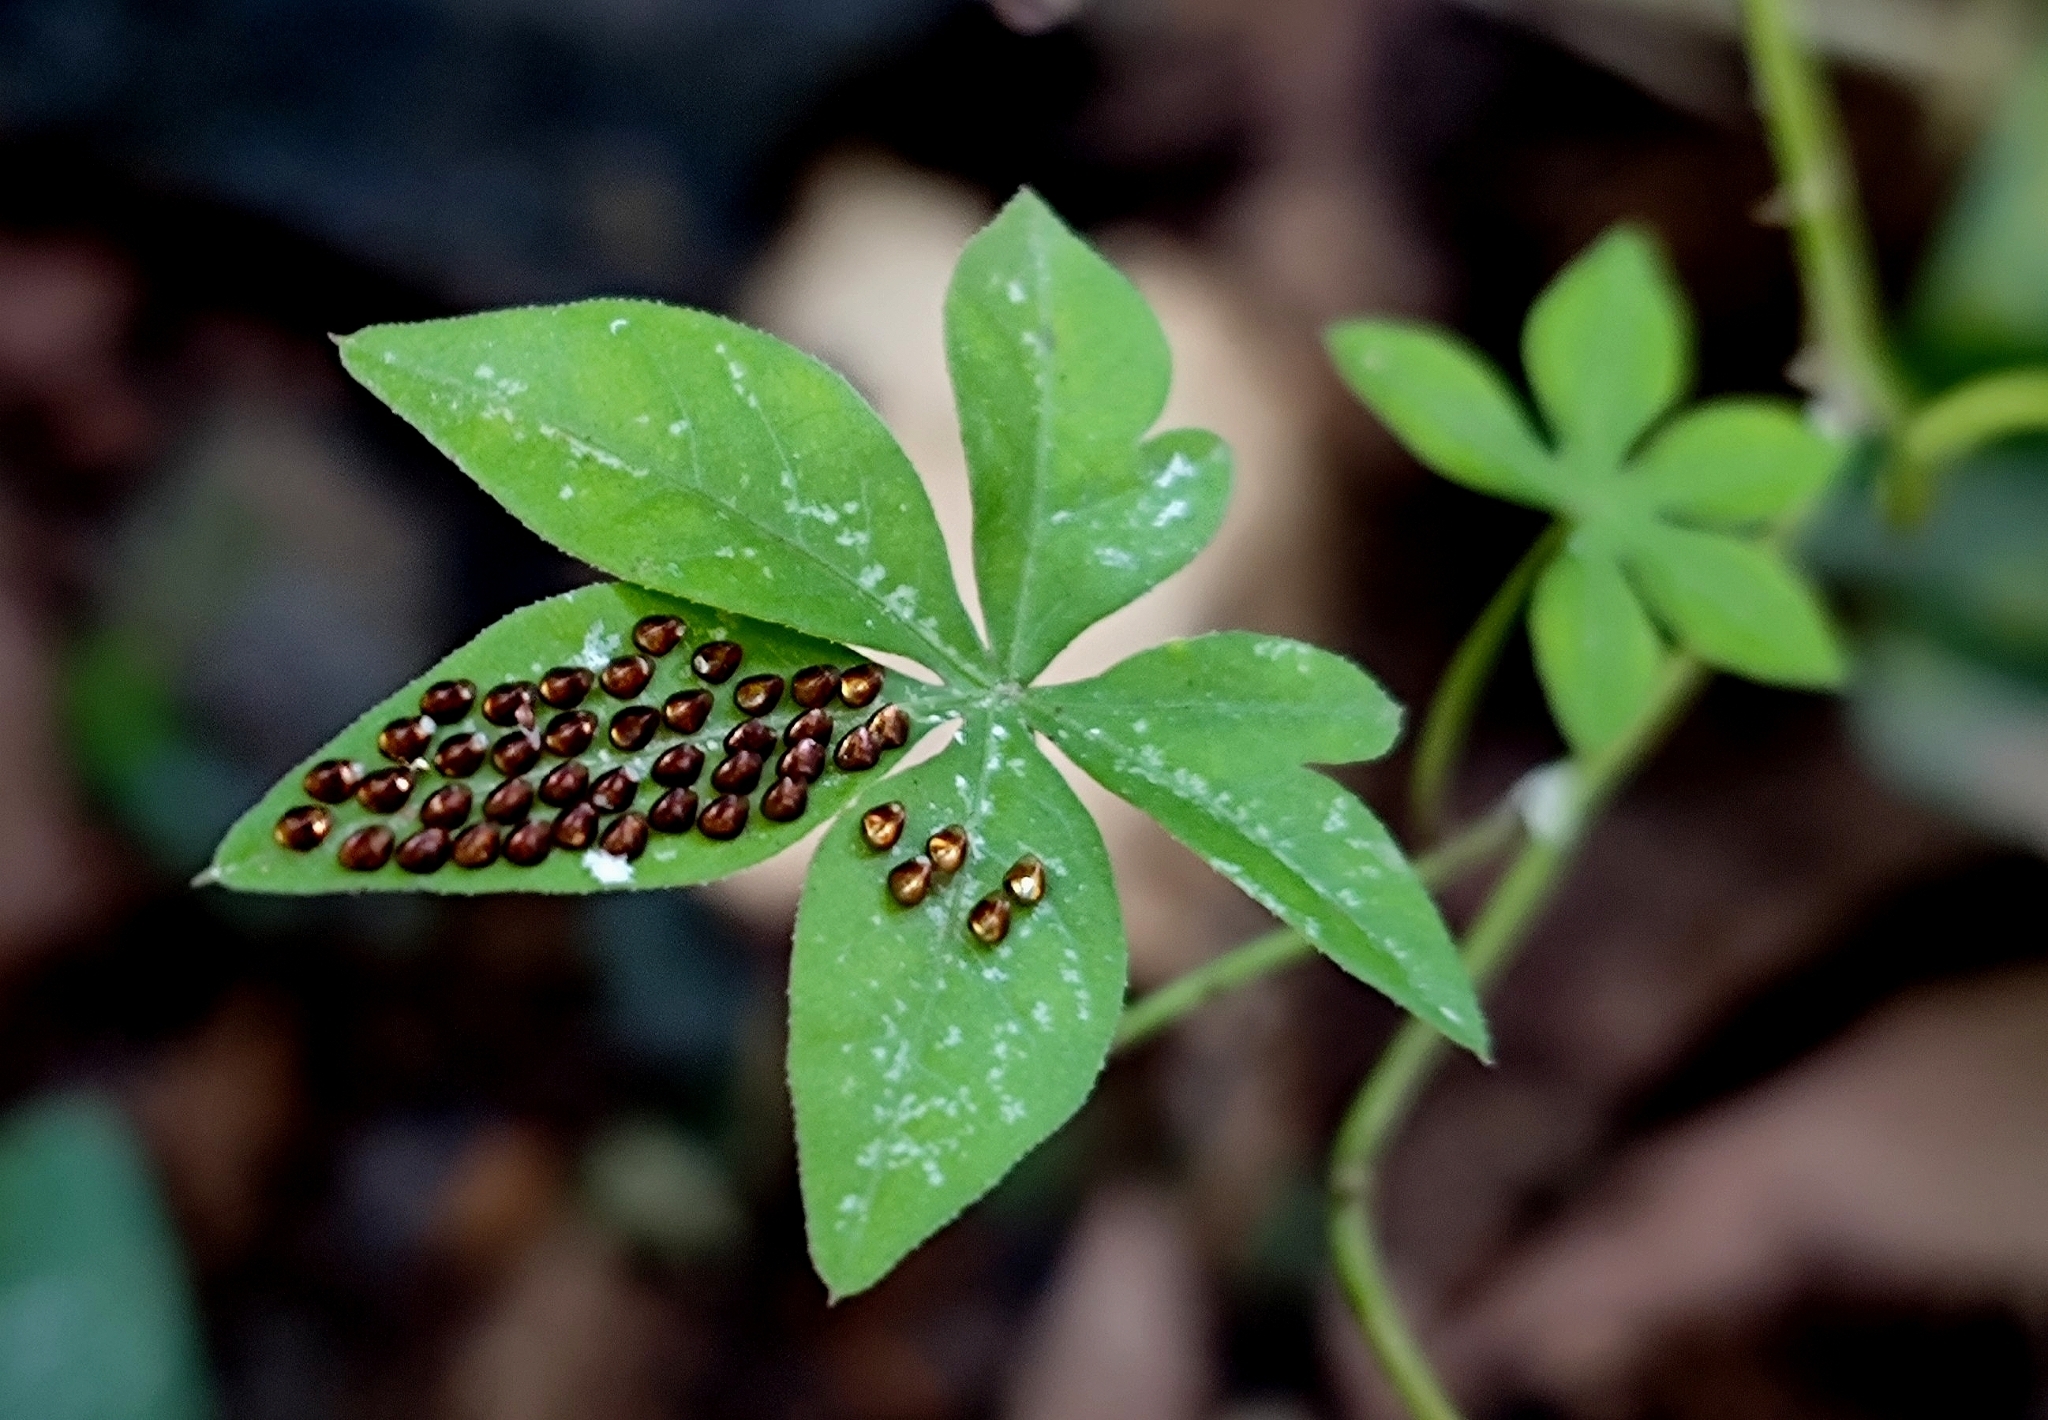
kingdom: Plantae
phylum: Tracheophyta
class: Magnoliopsida
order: Solanales
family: Convolvulaceae
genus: Ipomoea
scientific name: Ipomoea cairica
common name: Mile a minute vine
